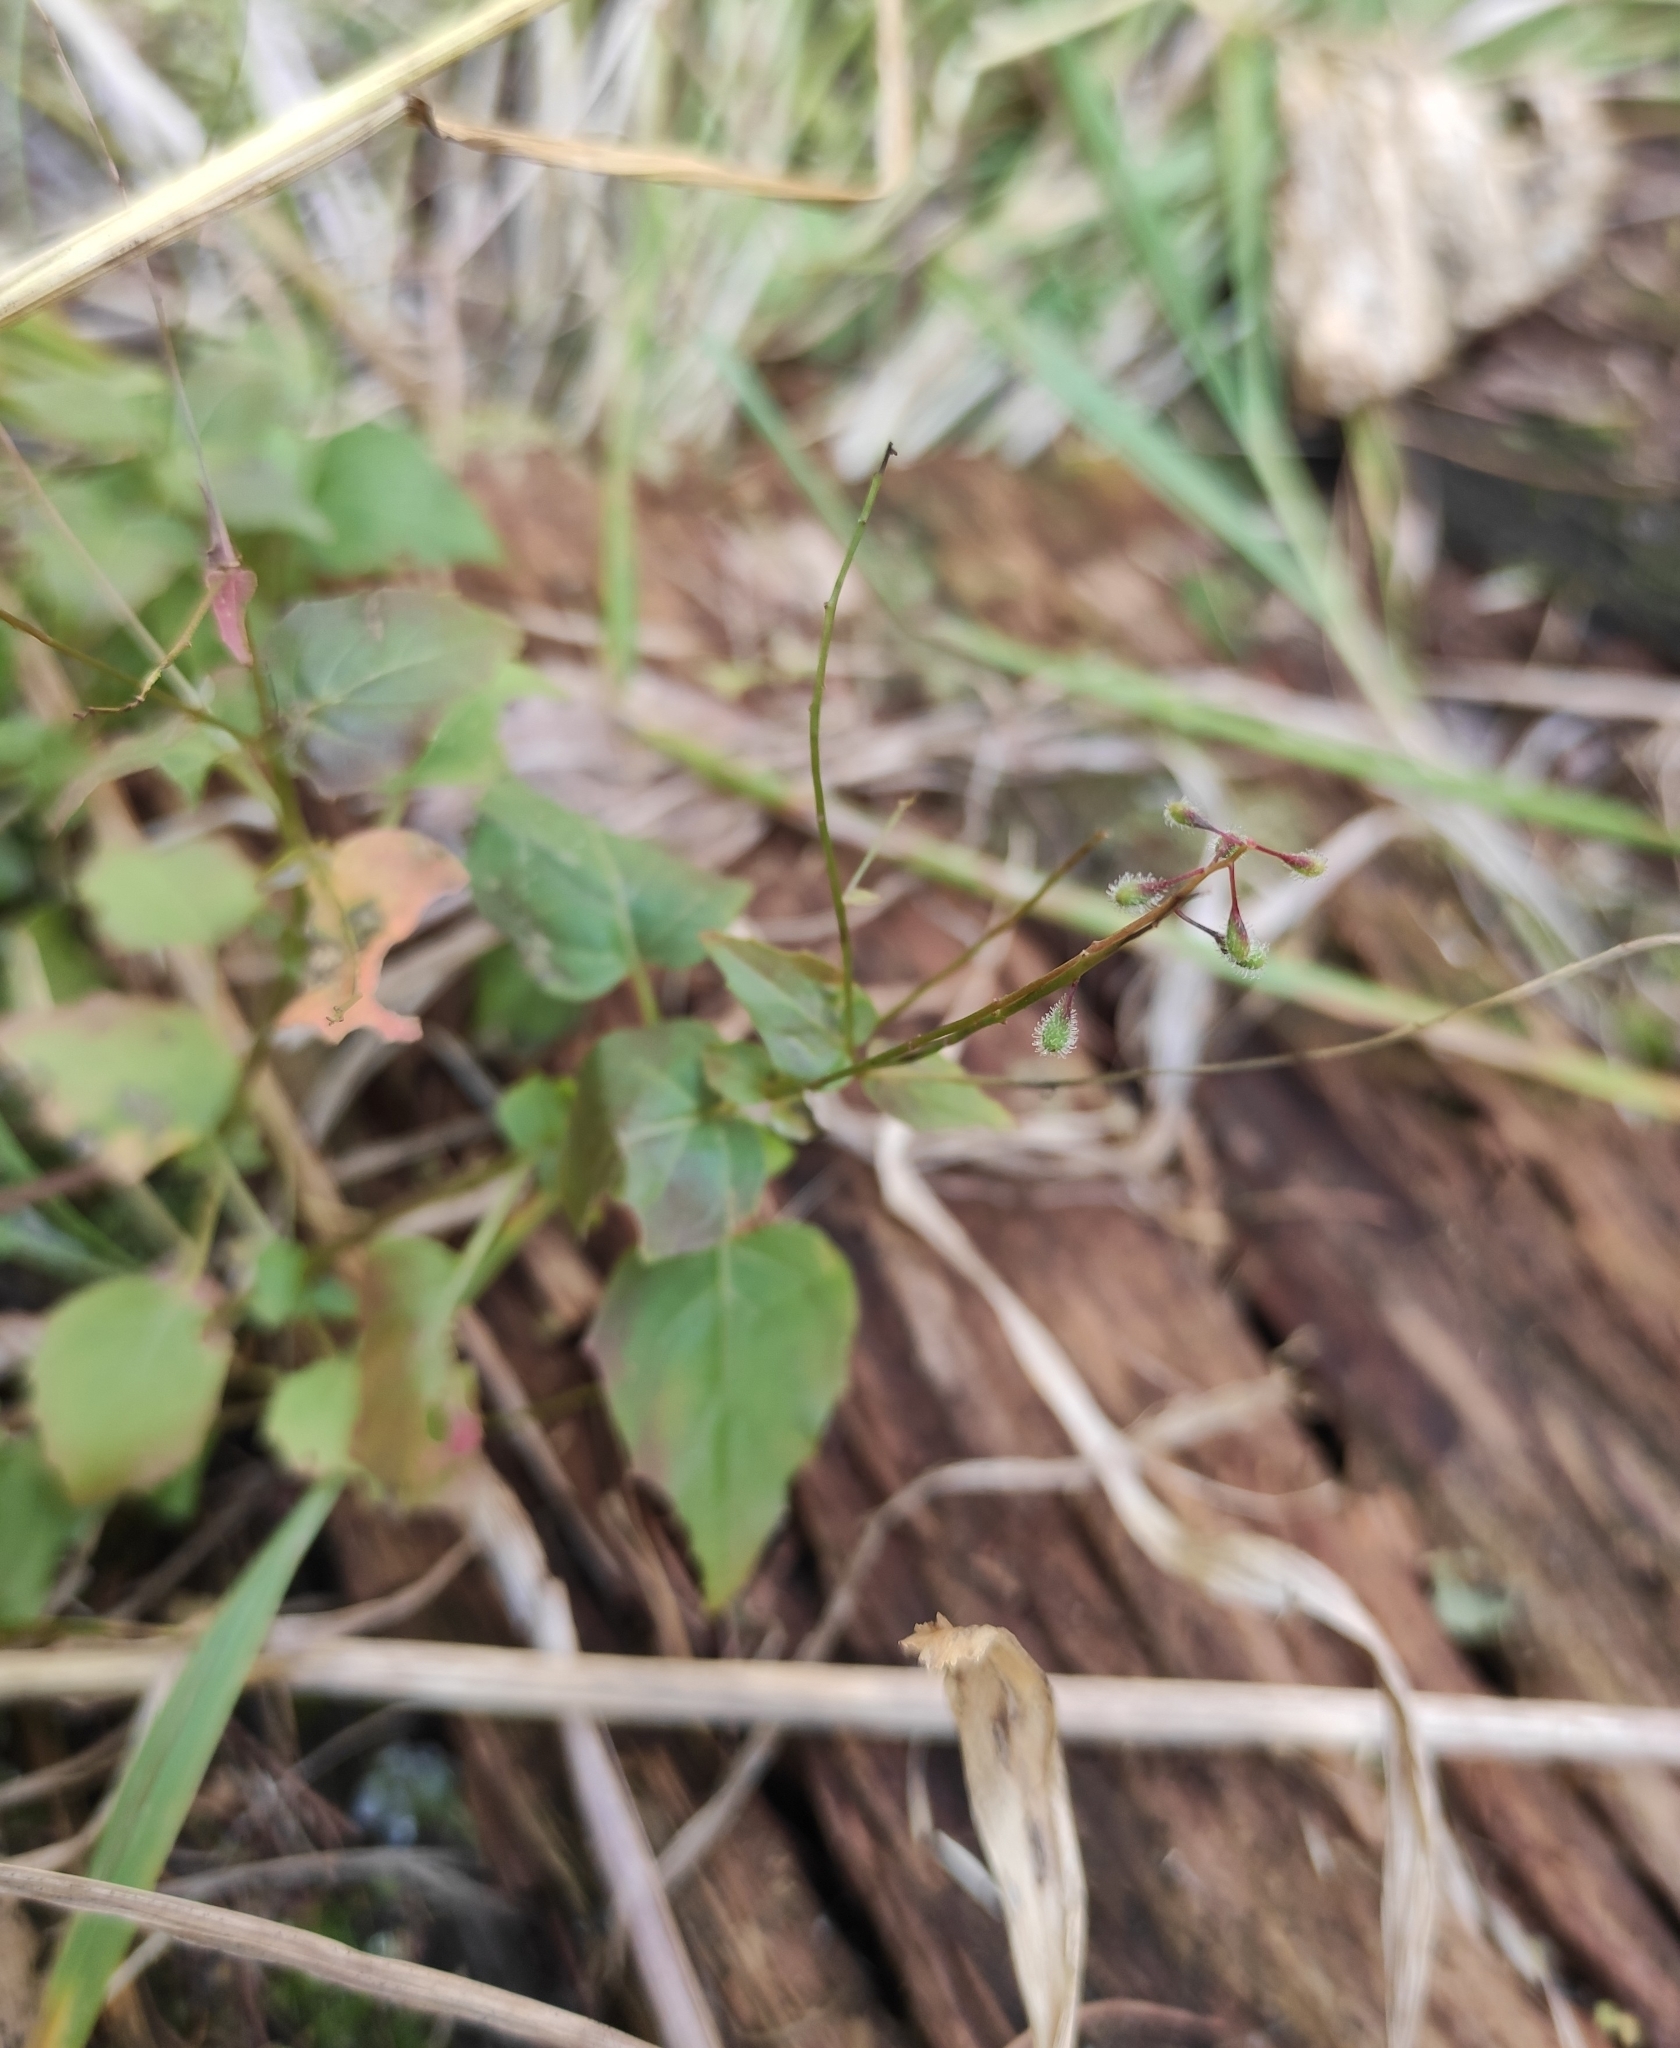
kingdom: Plantae
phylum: Tracheophyta
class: Magnoliopsida
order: Myrtales
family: Onagraceae
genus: Circaea
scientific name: Circaea alpina
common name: Alpine enchanter's-nightshade
